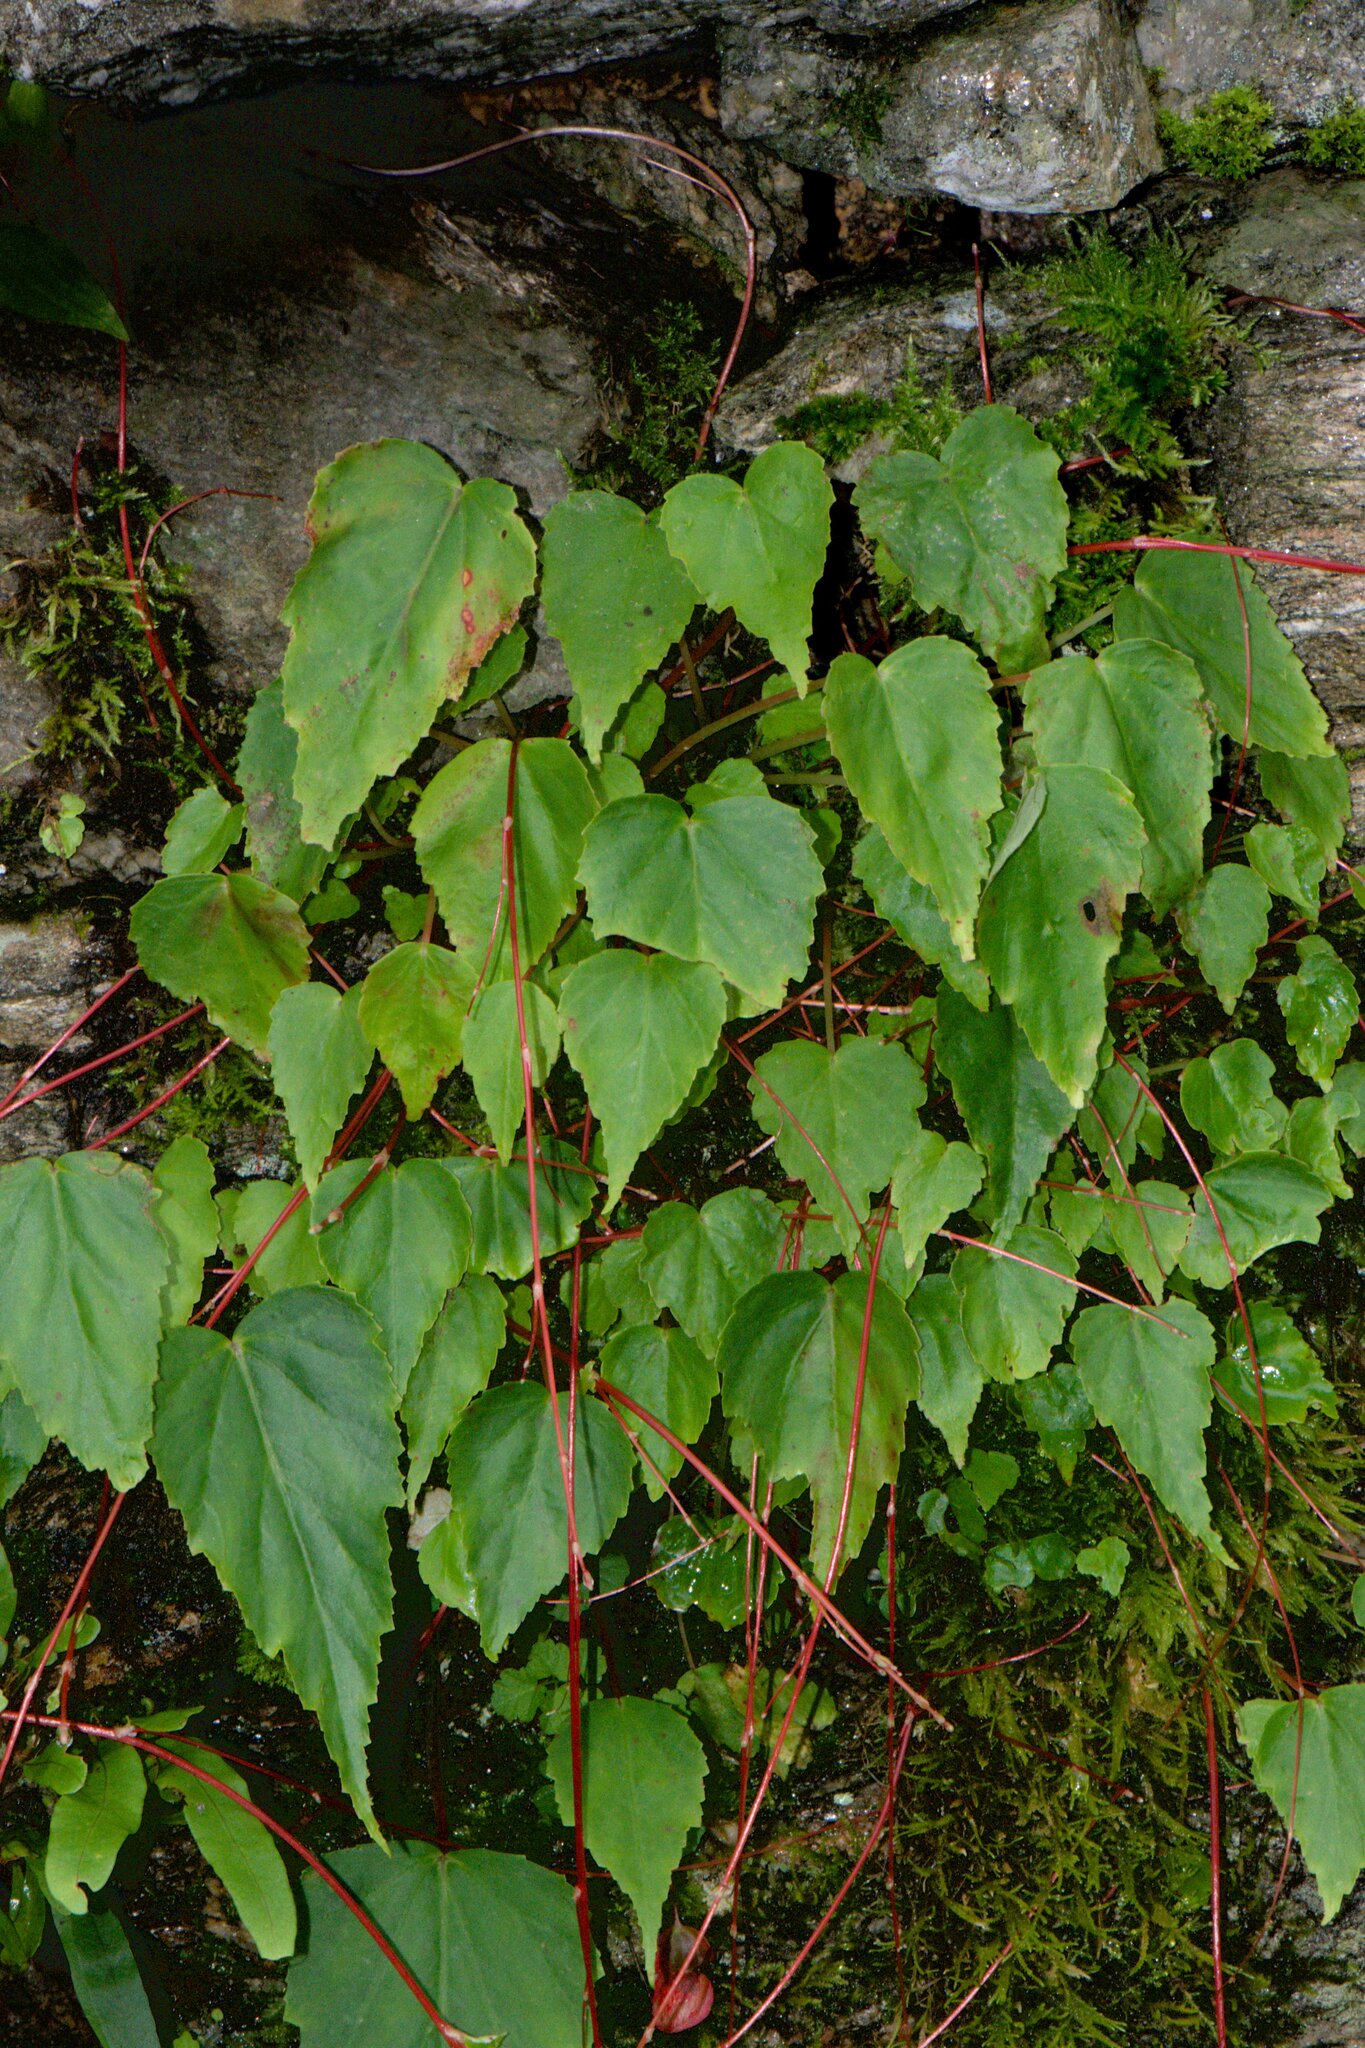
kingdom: Plantae
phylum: Tracheophyta
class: Magnoliopsida
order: Cucurbitales
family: Begoniaceae
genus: Begonia
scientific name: Begonia dioica
